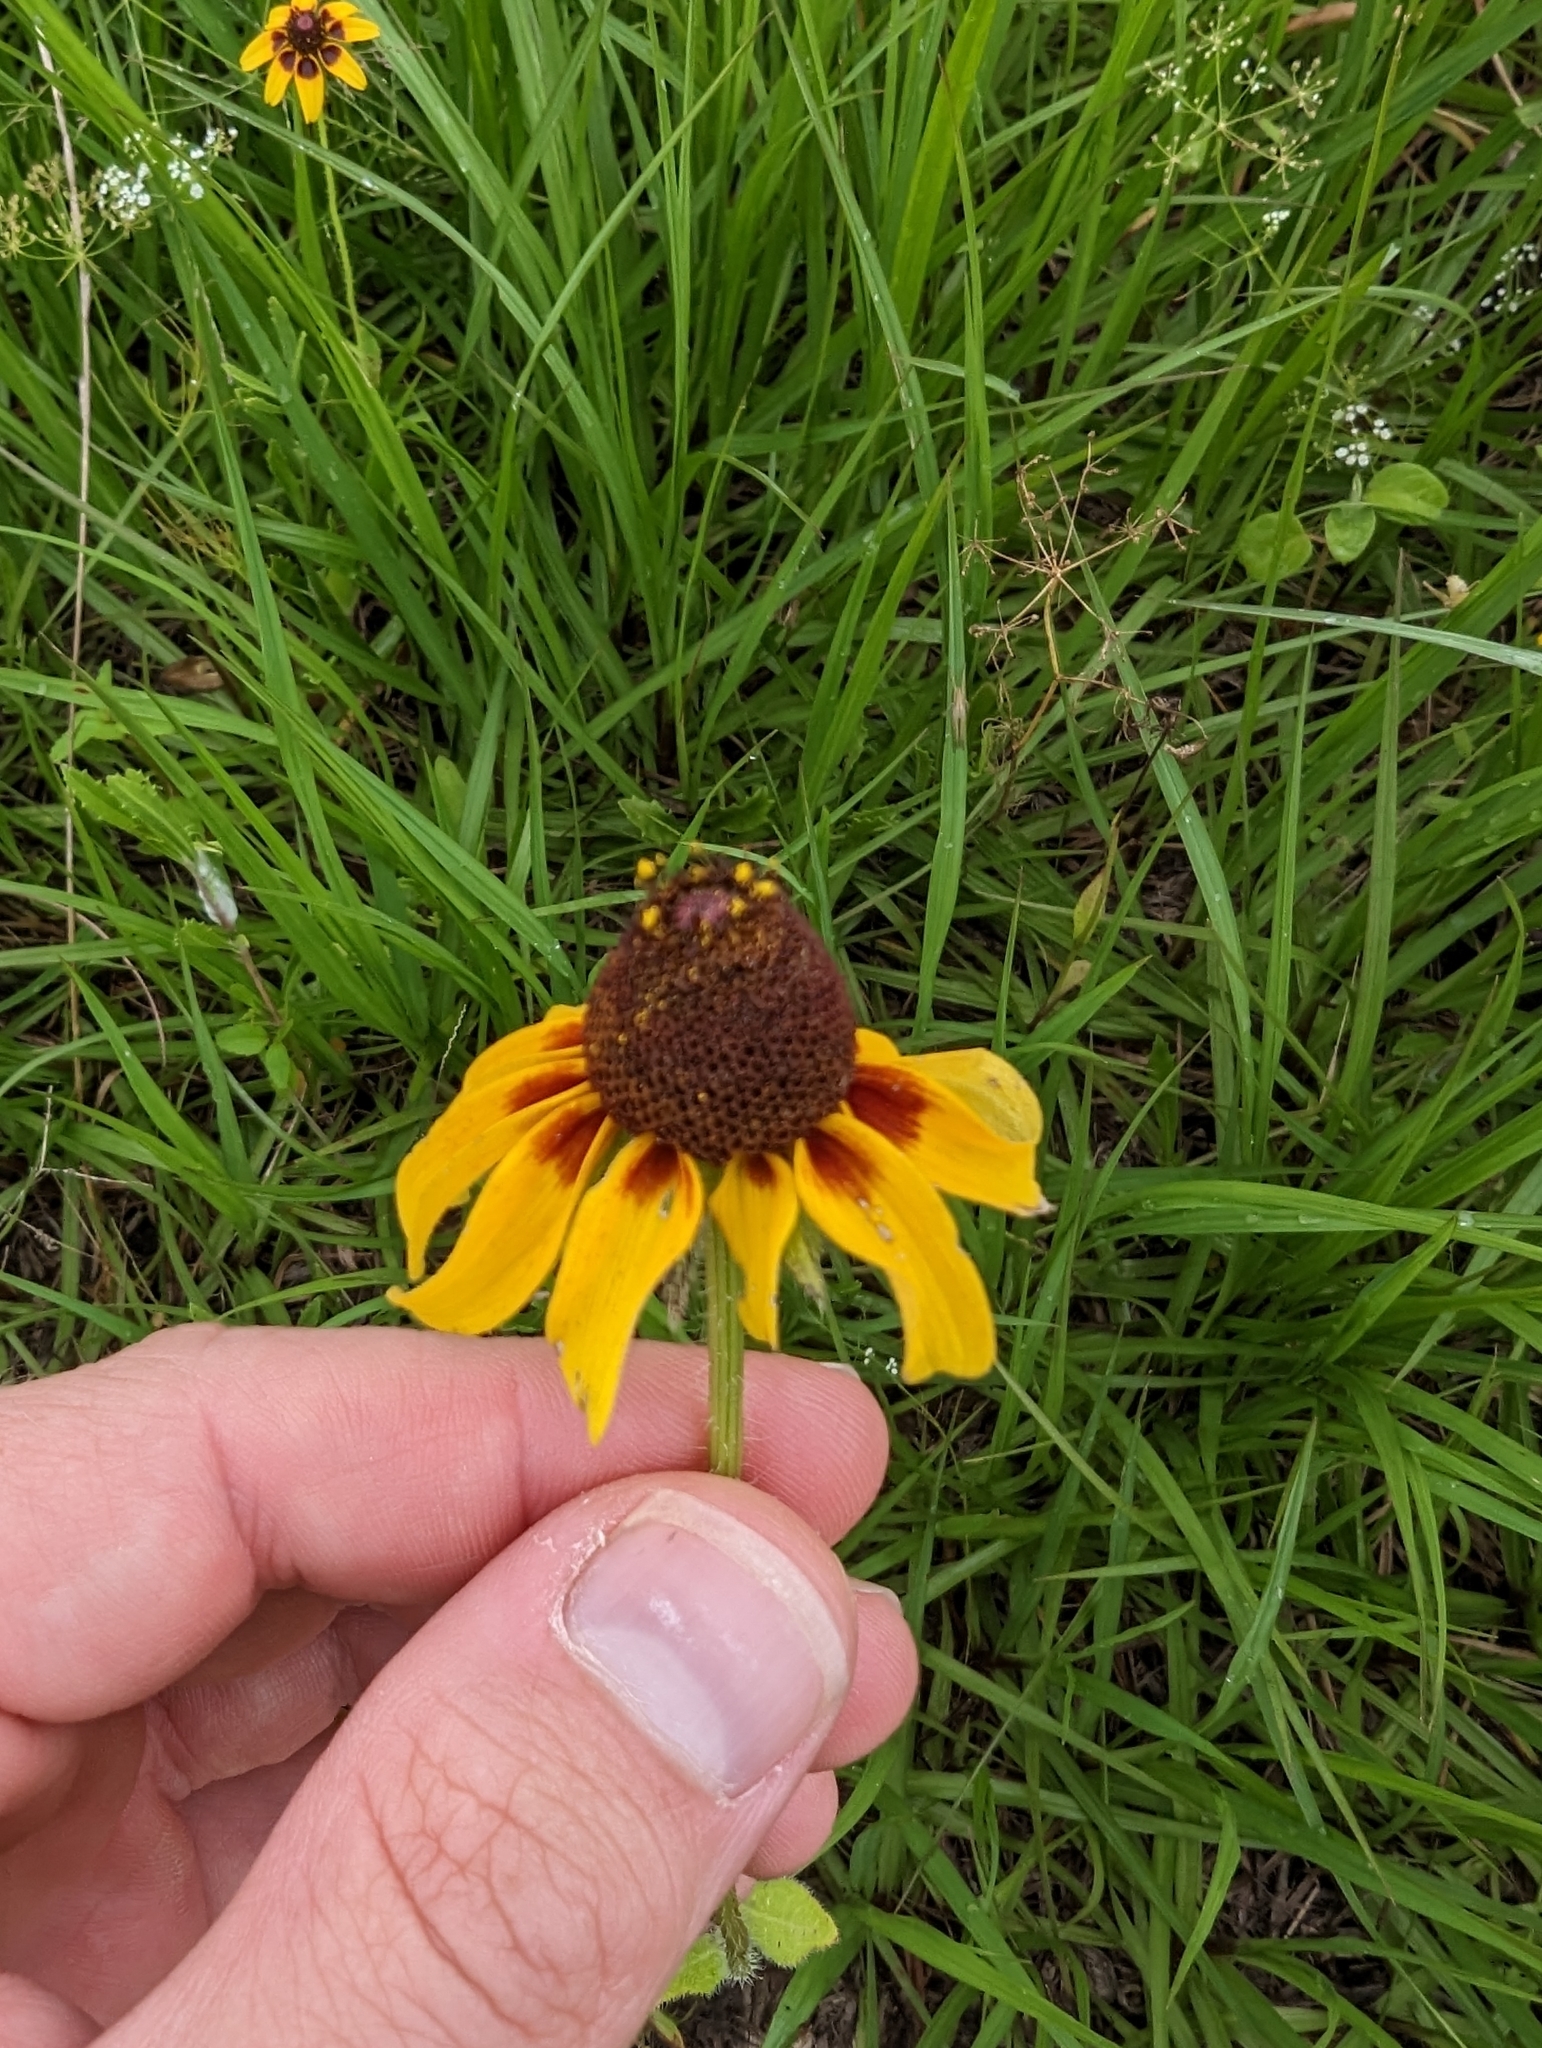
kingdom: Plantae
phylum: Tracheophyta
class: Magnoliopsida
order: Asterales
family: Asteraceae
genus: Rudbeckia
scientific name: Rudbeckia hirta
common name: Black-eyed-susan
